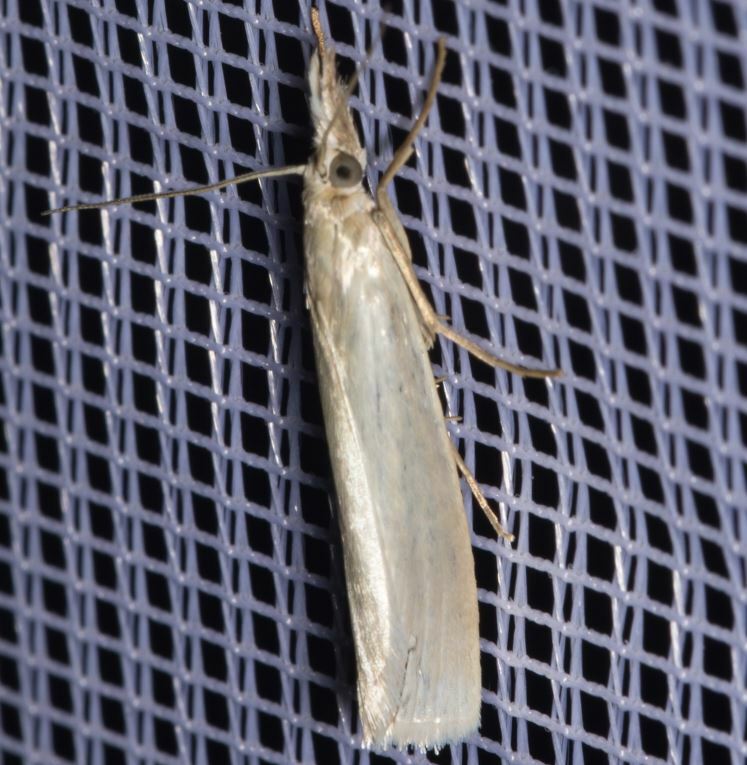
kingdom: Animalia
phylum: Arthropoda
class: Insecta
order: Lepidoptera
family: Crambidae
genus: Crambus
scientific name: Crambus perlellus
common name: Yellow satin veneer
